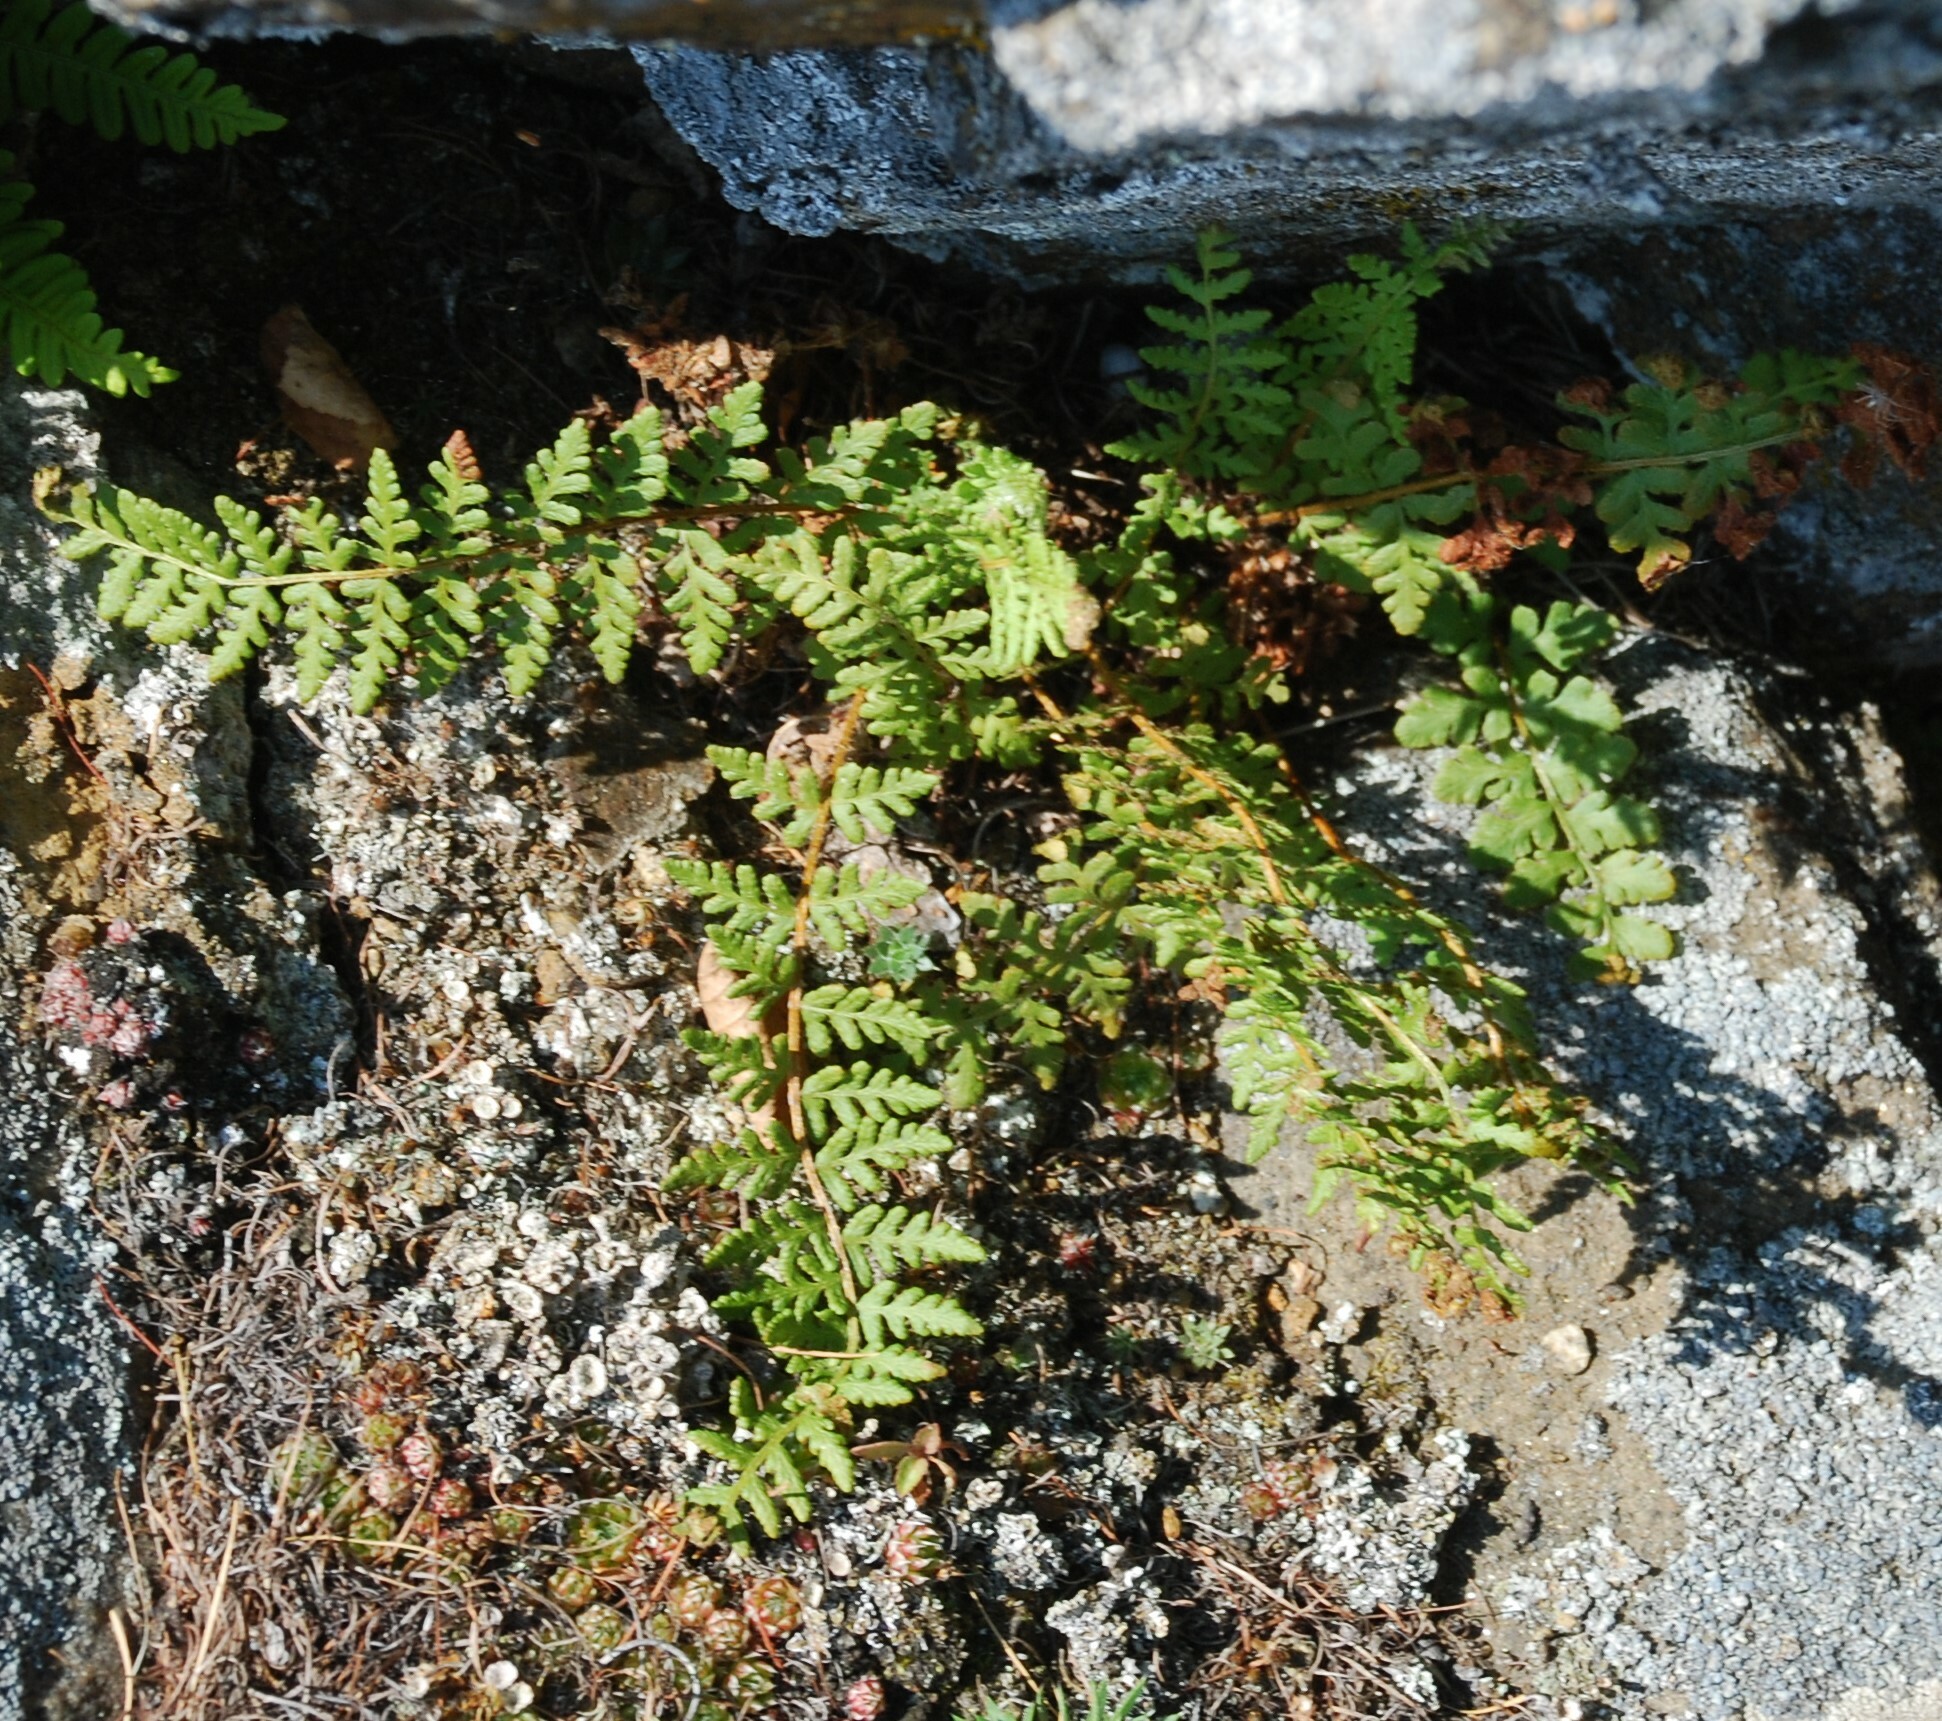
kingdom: Plantae
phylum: Tracheophyta
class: Polypodiopsida
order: Polypodiales
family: Woodsiaceae
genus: Woodsia
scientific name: Woodsia ilvensis
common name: Fragrant woodsia
